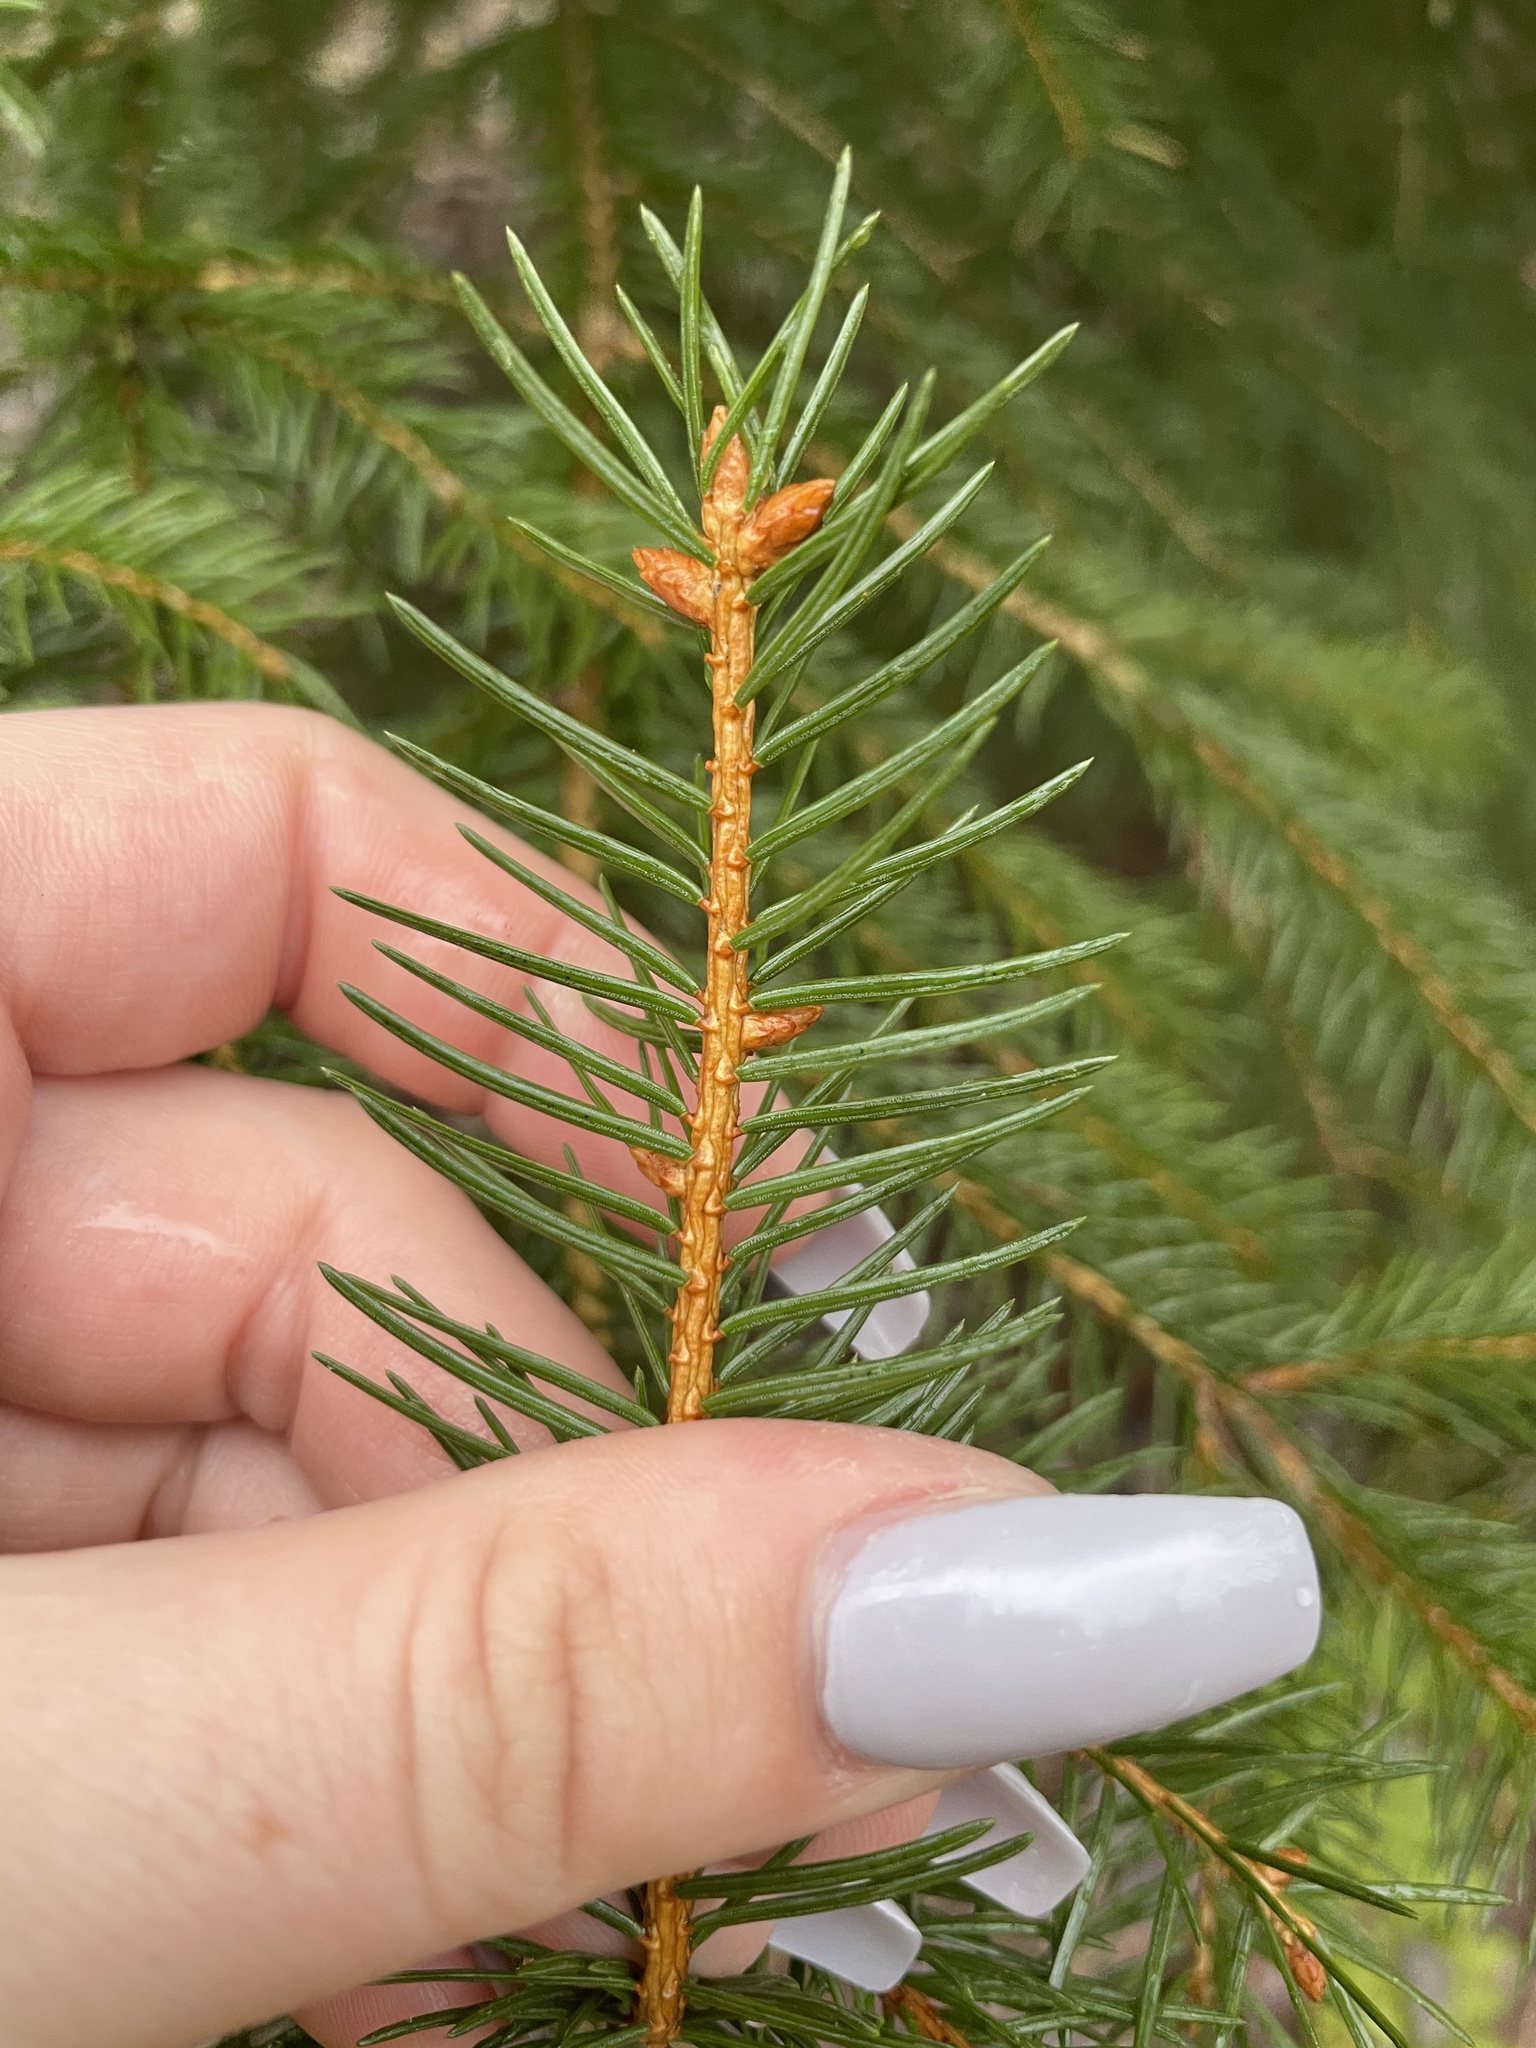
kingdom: Plantae
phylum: Tracheophyta
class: Pinopsida
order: Pinales
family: Pinaceae
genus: Picea
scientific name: Picea glauca
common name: White spruce
